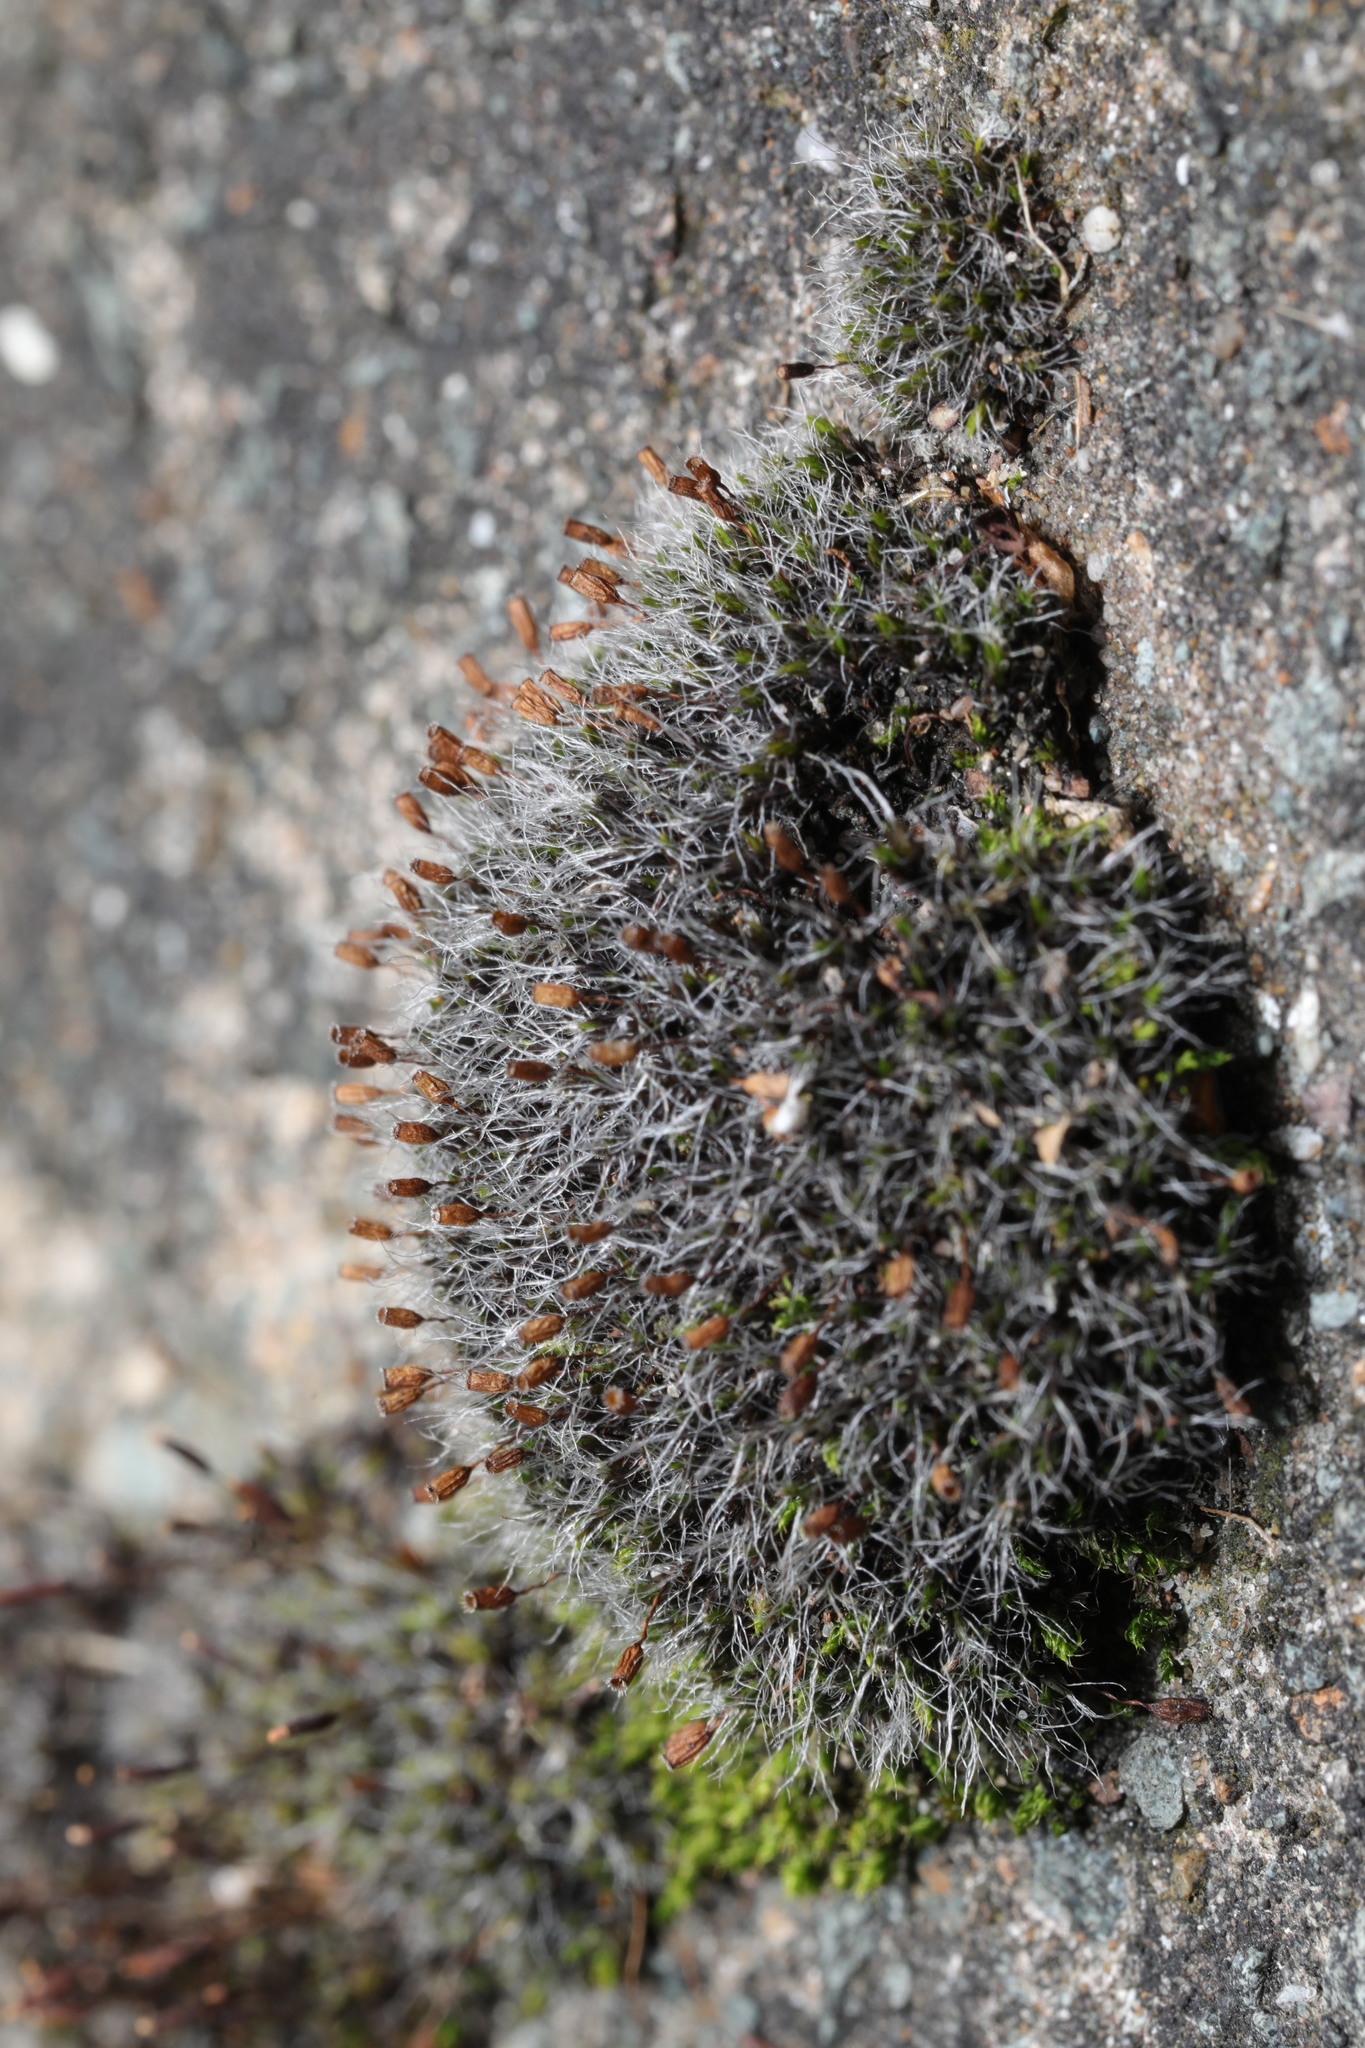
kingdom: Plantae
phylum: Bryophyta
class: Bryopsida
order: Grimmiales
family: Grimmiaceae
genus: Grimmia
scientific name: Grimmia pulvinata
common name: Grey-cushioned grimmia
